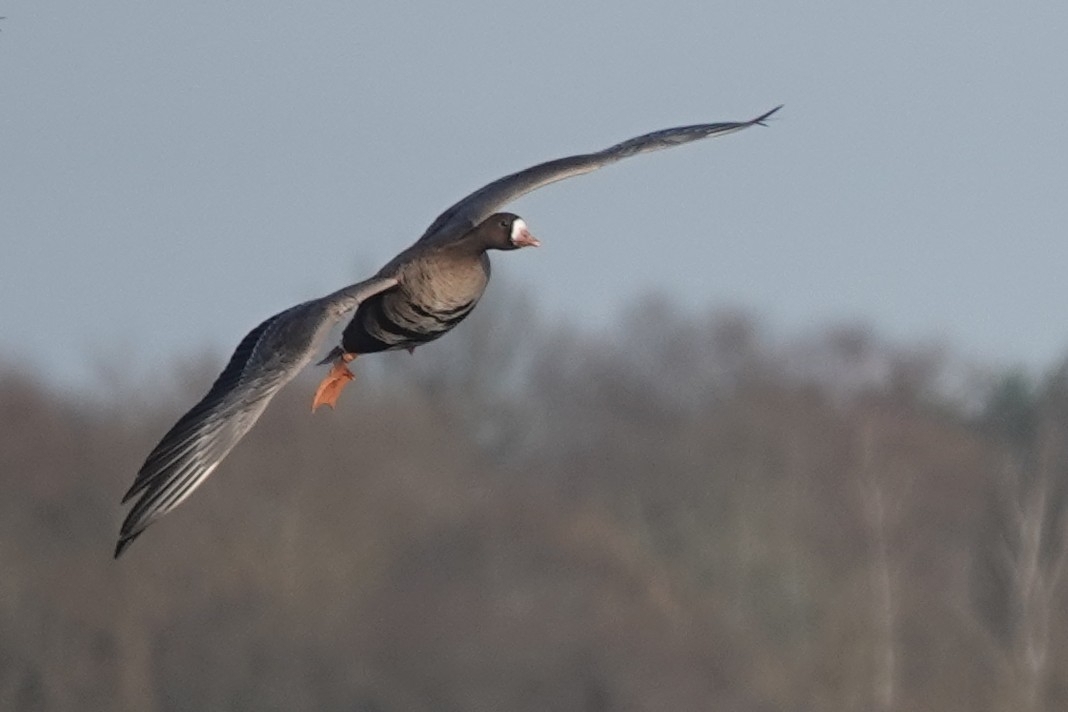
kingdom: Animalia
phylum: Chordata
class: Aves
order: Anseriformes
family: Anatidae
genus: Anser
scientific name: Anser albifrons
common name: Greater white-fronted goose
